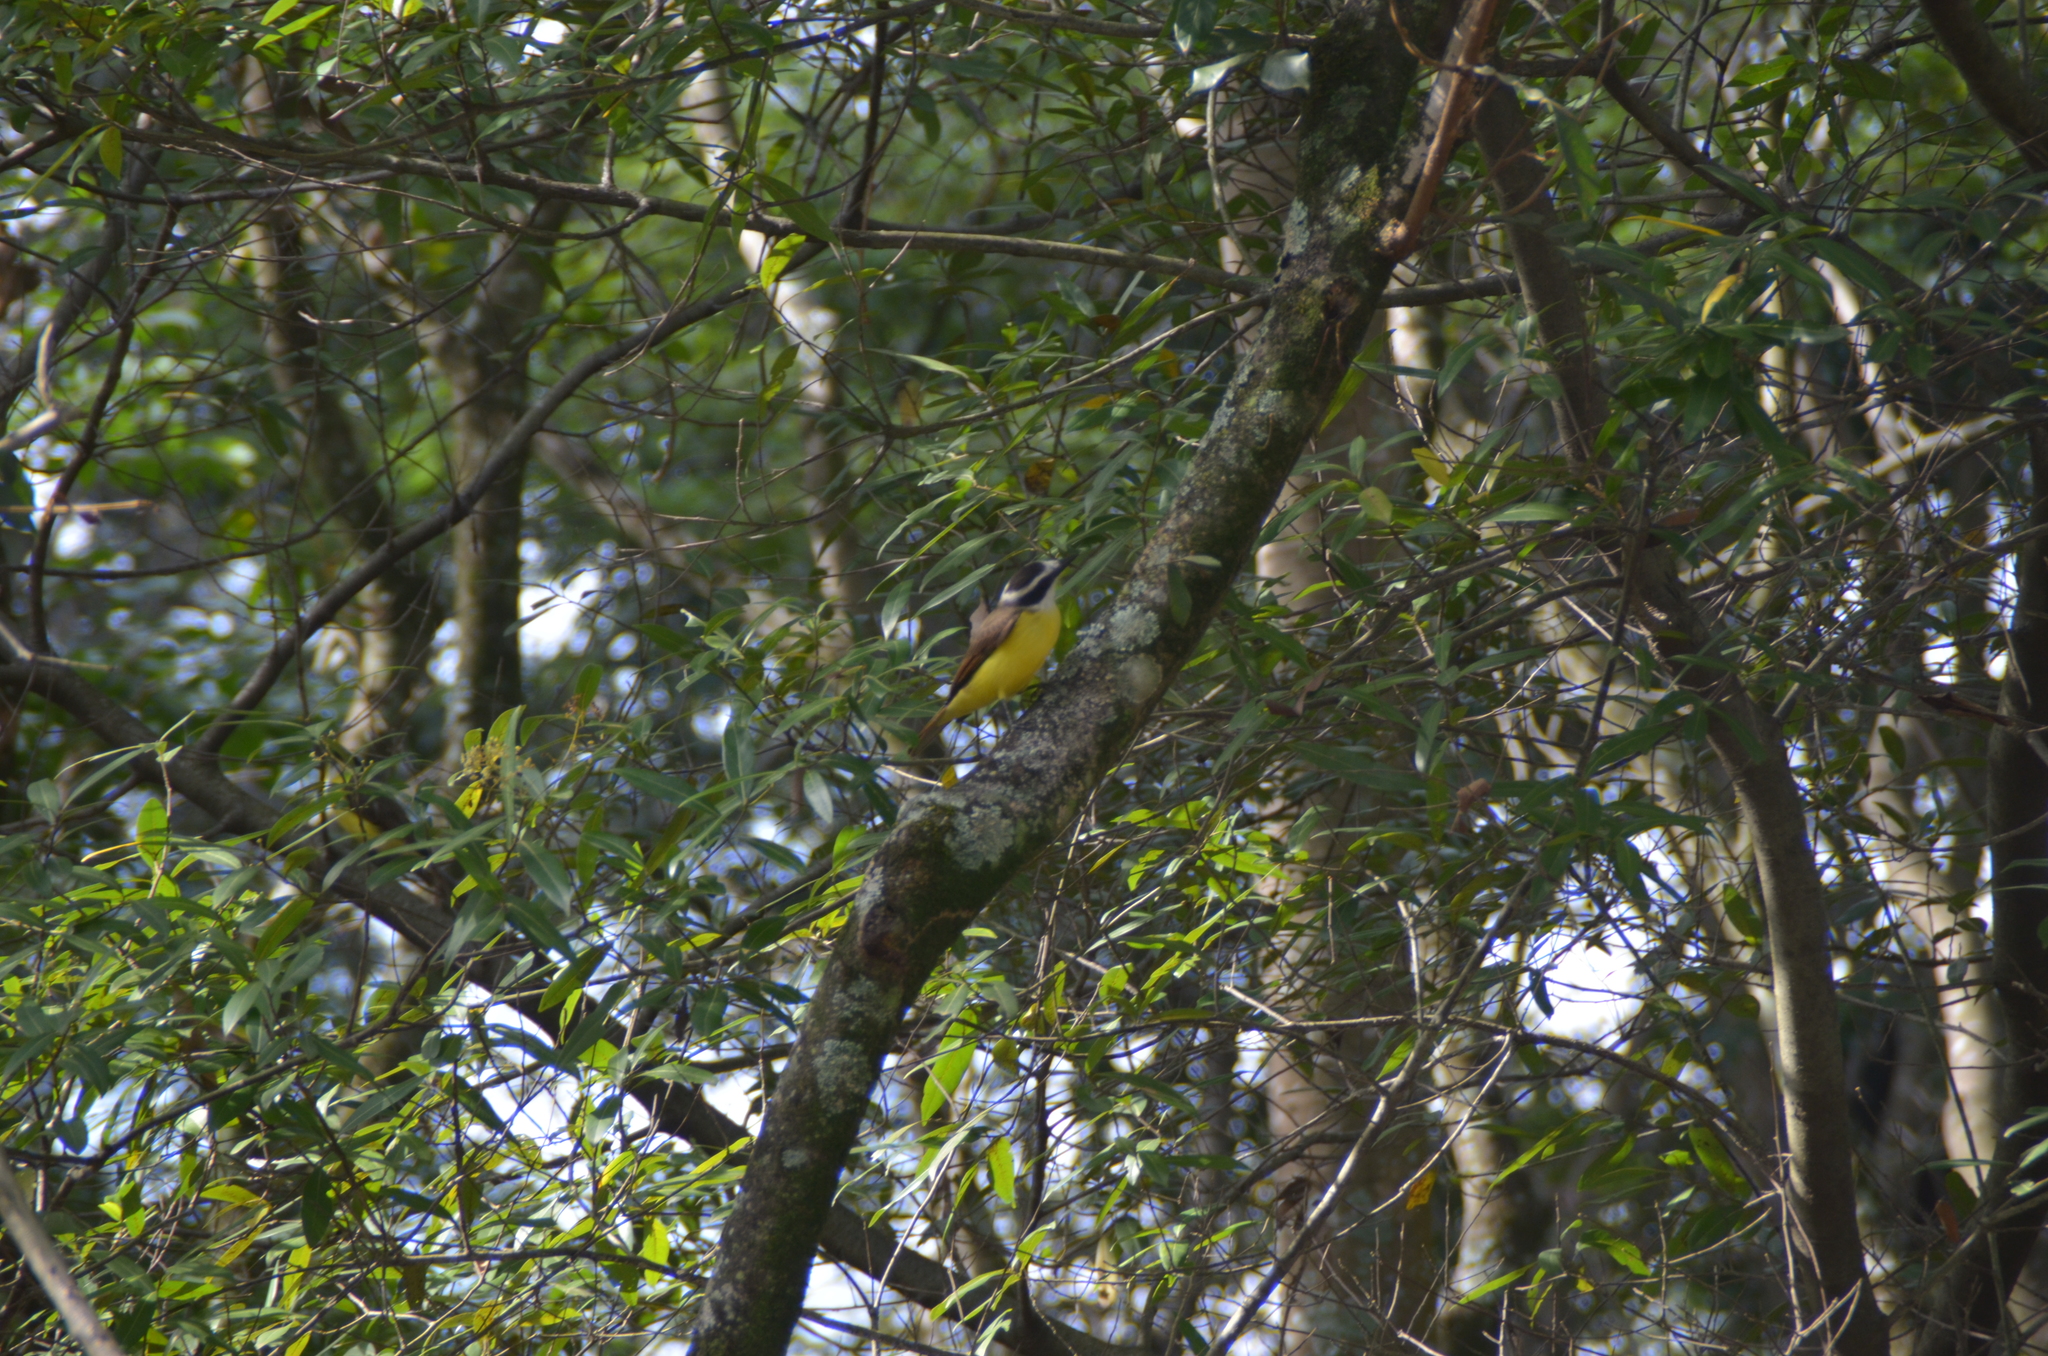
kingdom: Animalia
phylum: Chordata
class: Aves
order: Passeriformes
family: Tyrannidae
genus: Pitangus
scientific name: Pitangus sulphuratus
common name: Great kiskadee
